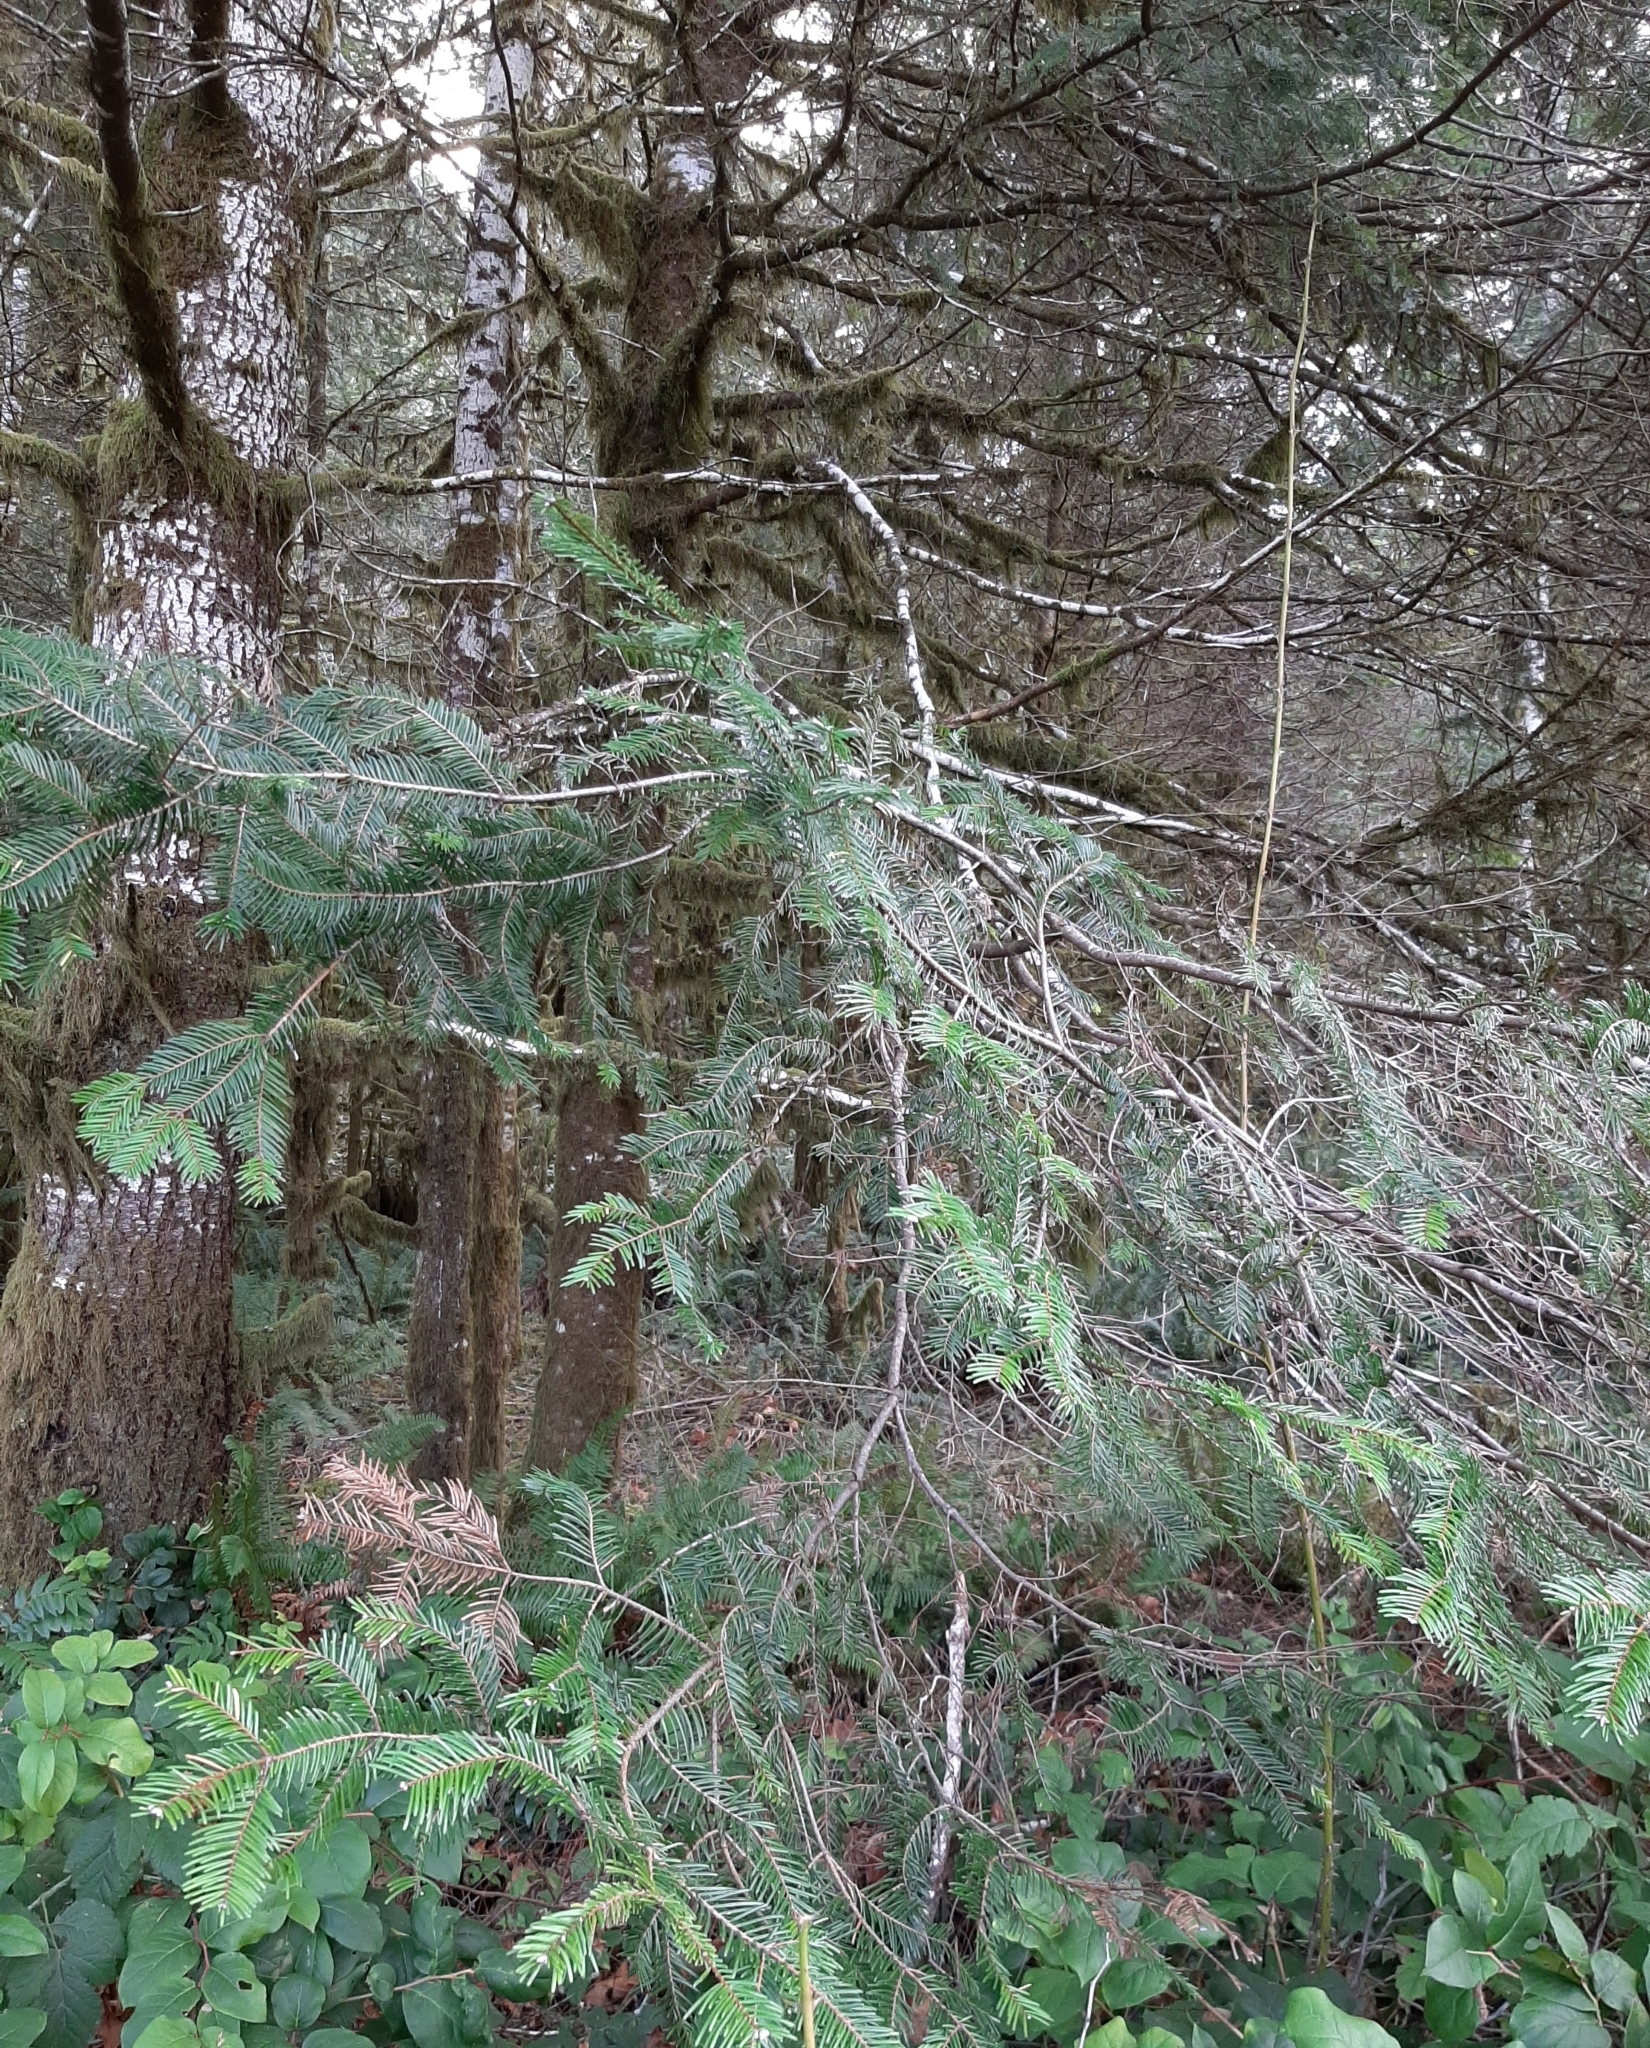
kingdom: Plantae
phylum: Tracheophyta
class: Pinopsida
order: Pinales
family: Pinaceae
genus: Abies
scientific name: Abies grandis
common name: Giant fir
